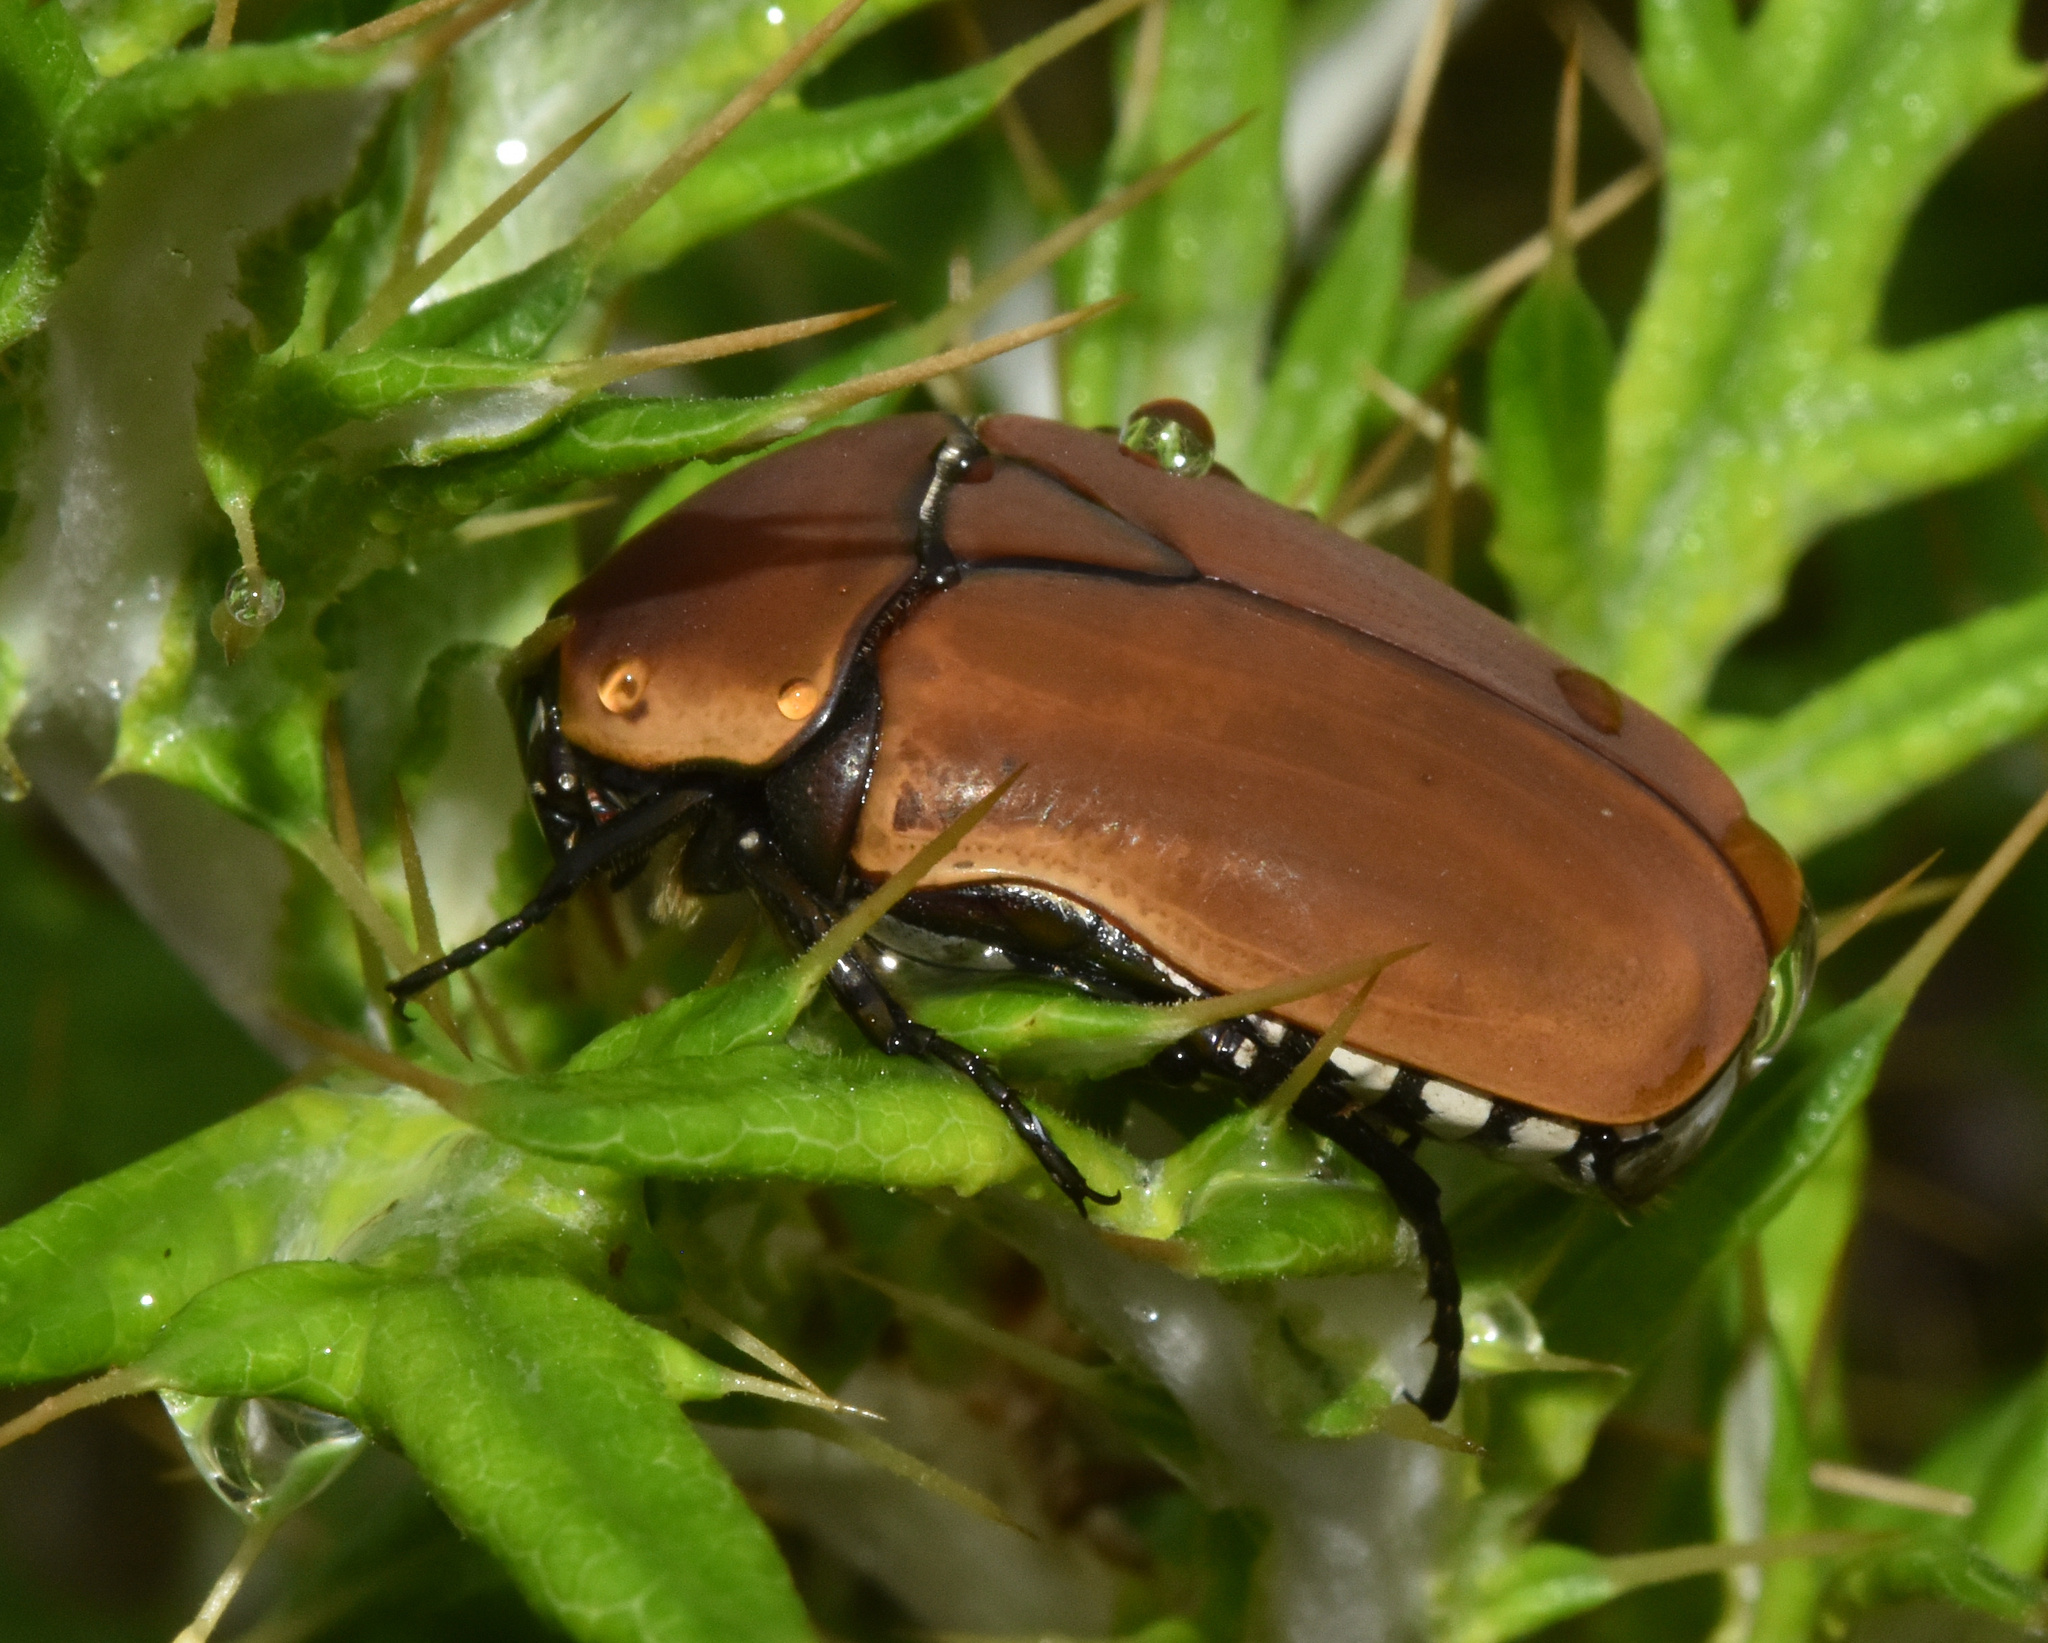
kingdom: Animalia
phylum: Arthropoda
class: Insecta
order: Coleoptera
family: Scarabaeidae
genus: Dischista
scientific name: Dischista rufa
